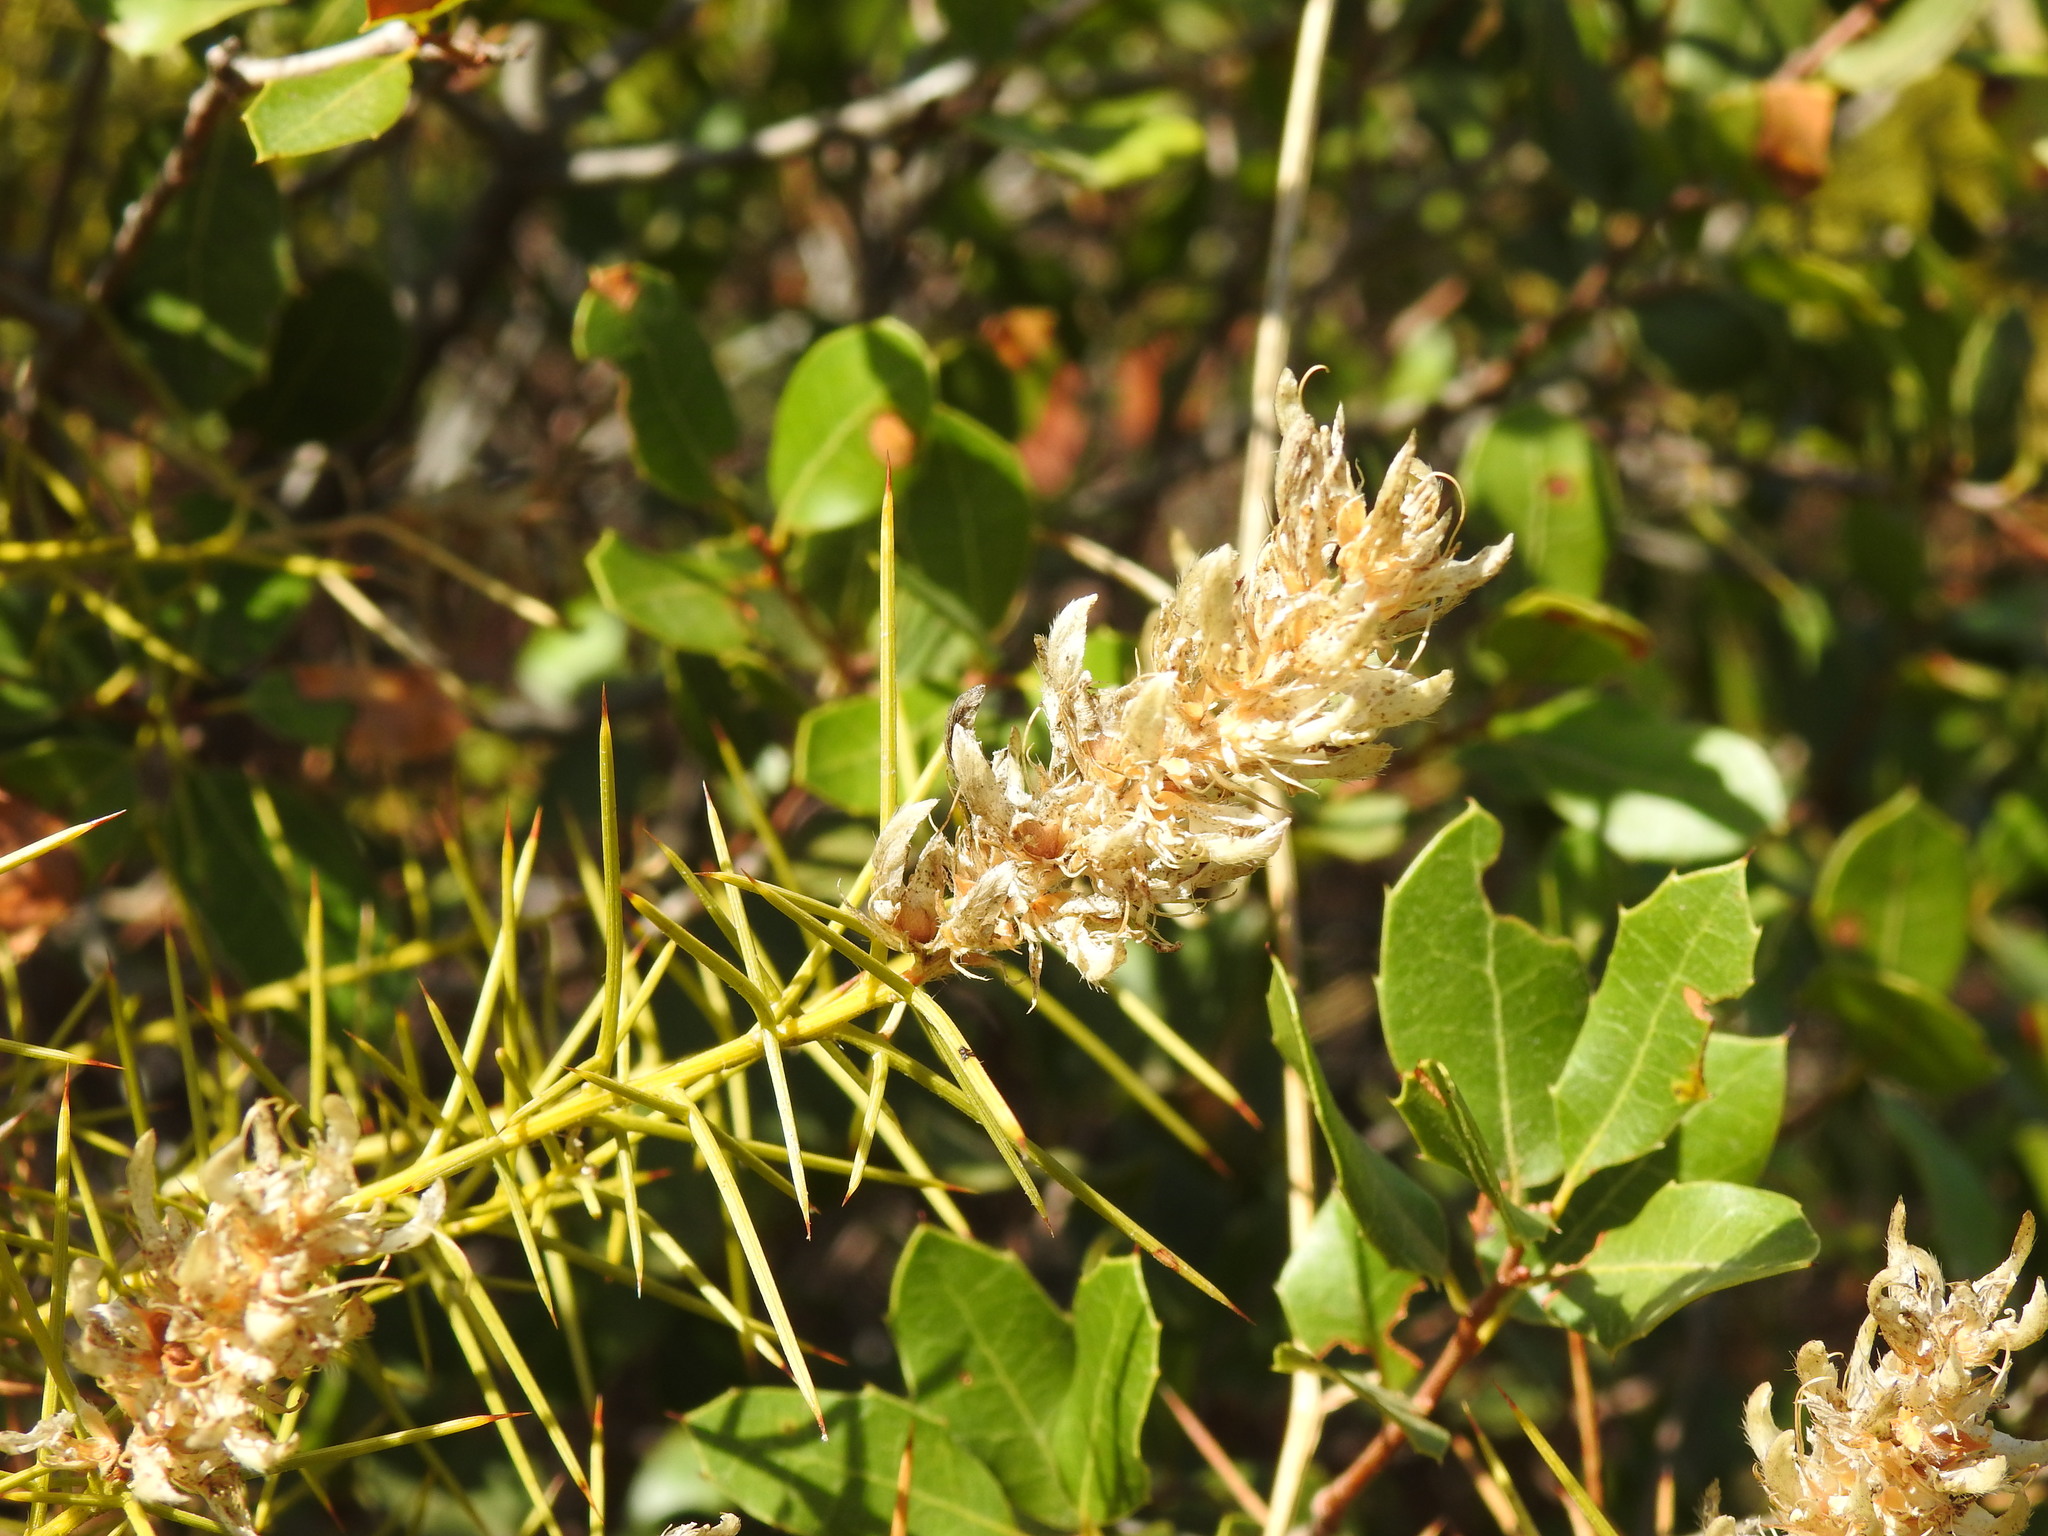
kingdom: Plantae
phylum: Tracheophyta
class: Magnoliopsida
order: Fabales
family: Fabaceae
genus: Genista
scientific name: Genista hirsuta
